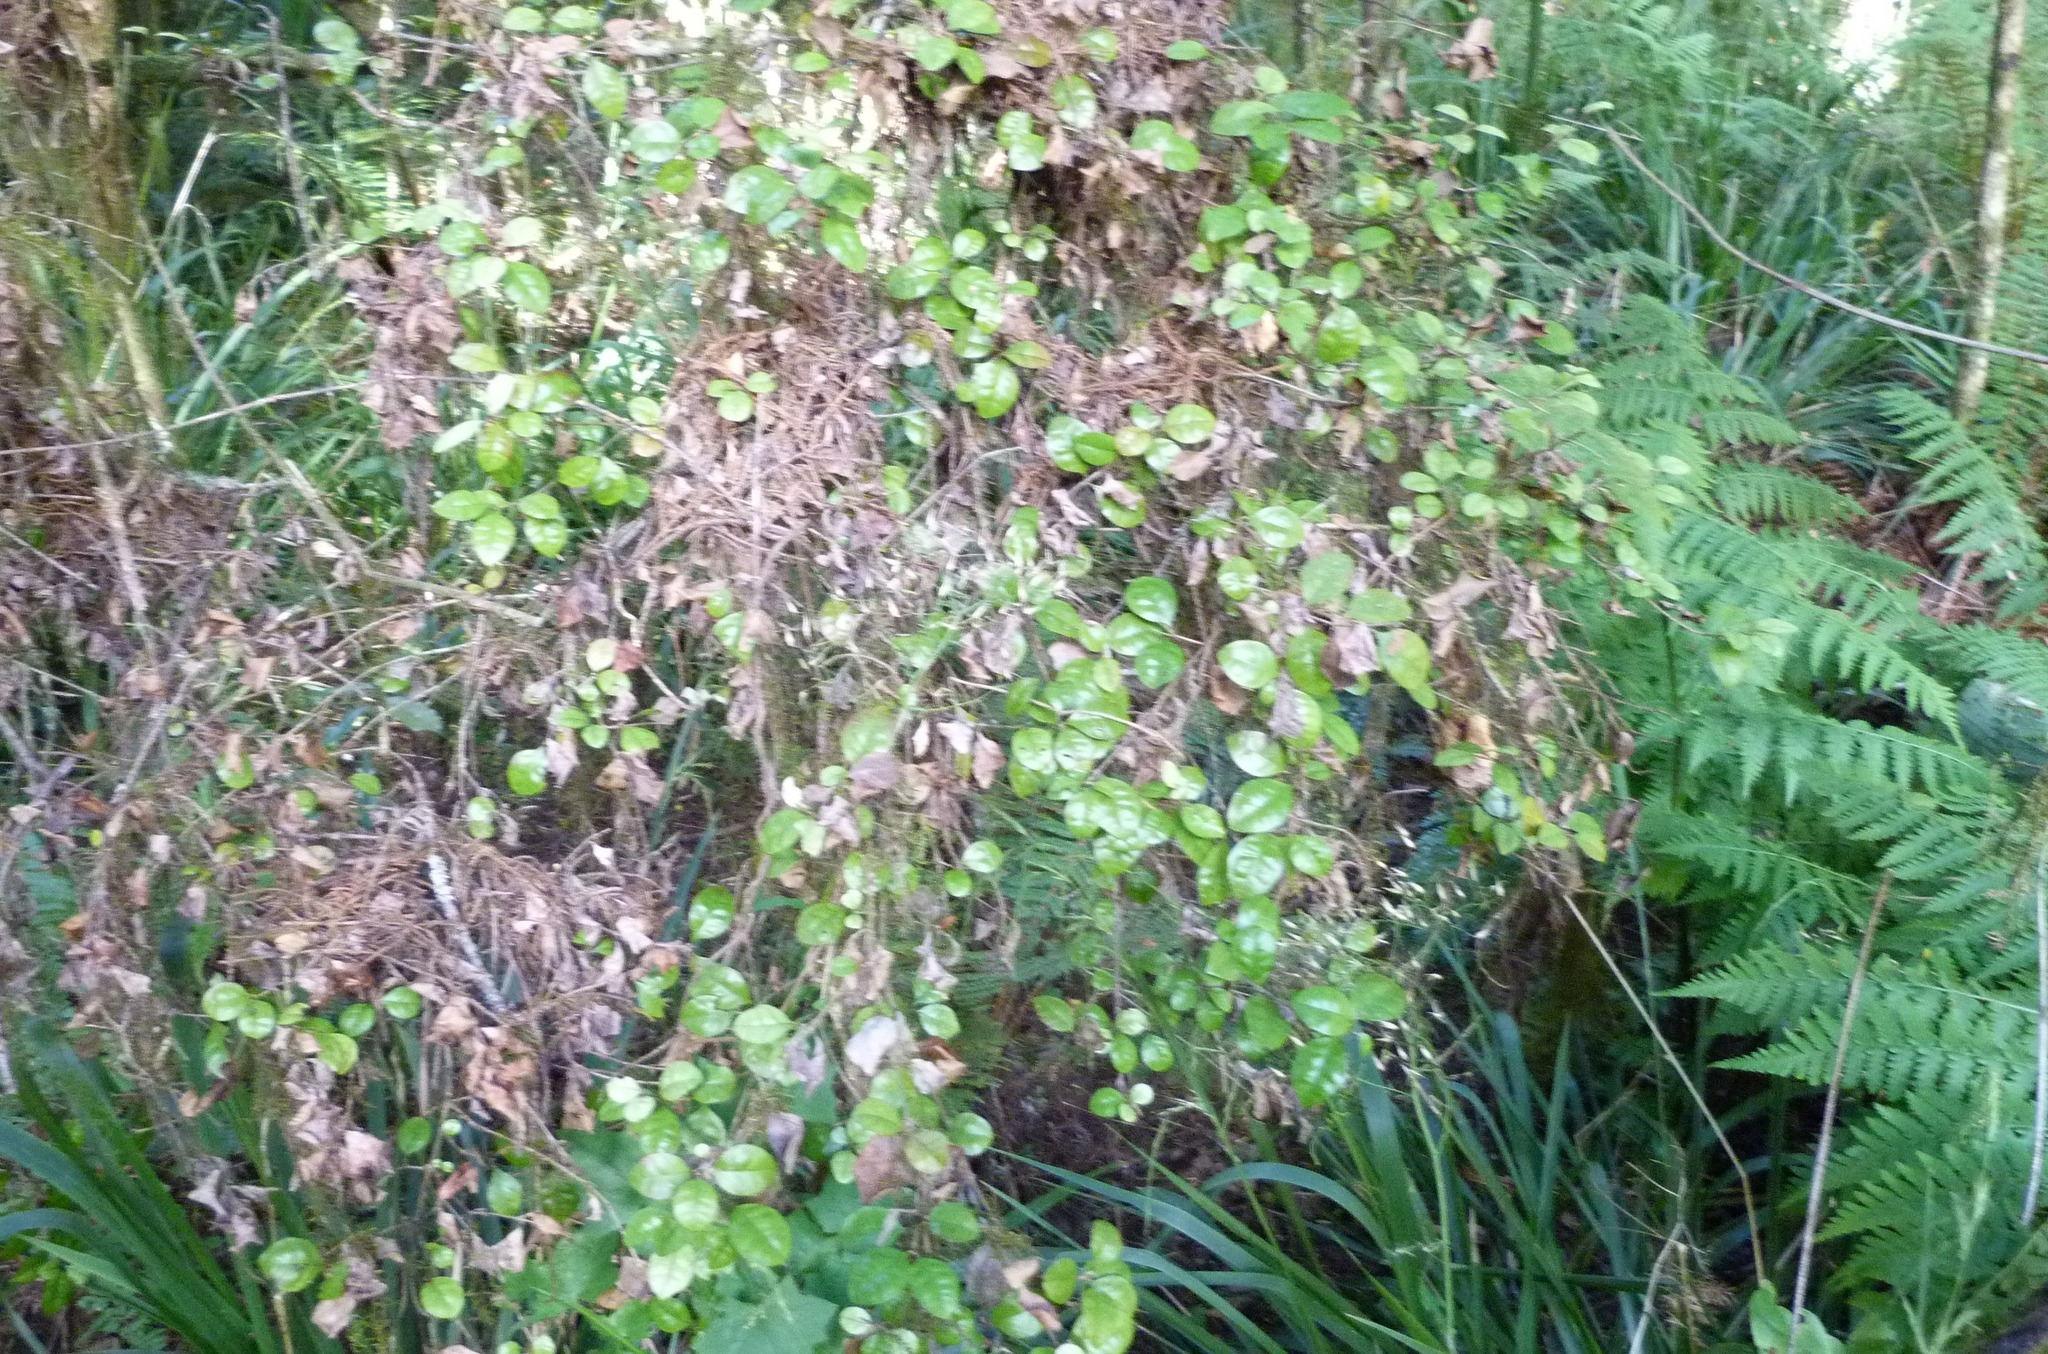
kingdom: Plantae
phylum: Tracheophyta
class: Magnoliopsida
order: Myrtales
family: Myrtaceae
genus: Lophomyrtus
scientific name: Lophomyrtus bullata
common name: Rama rama
